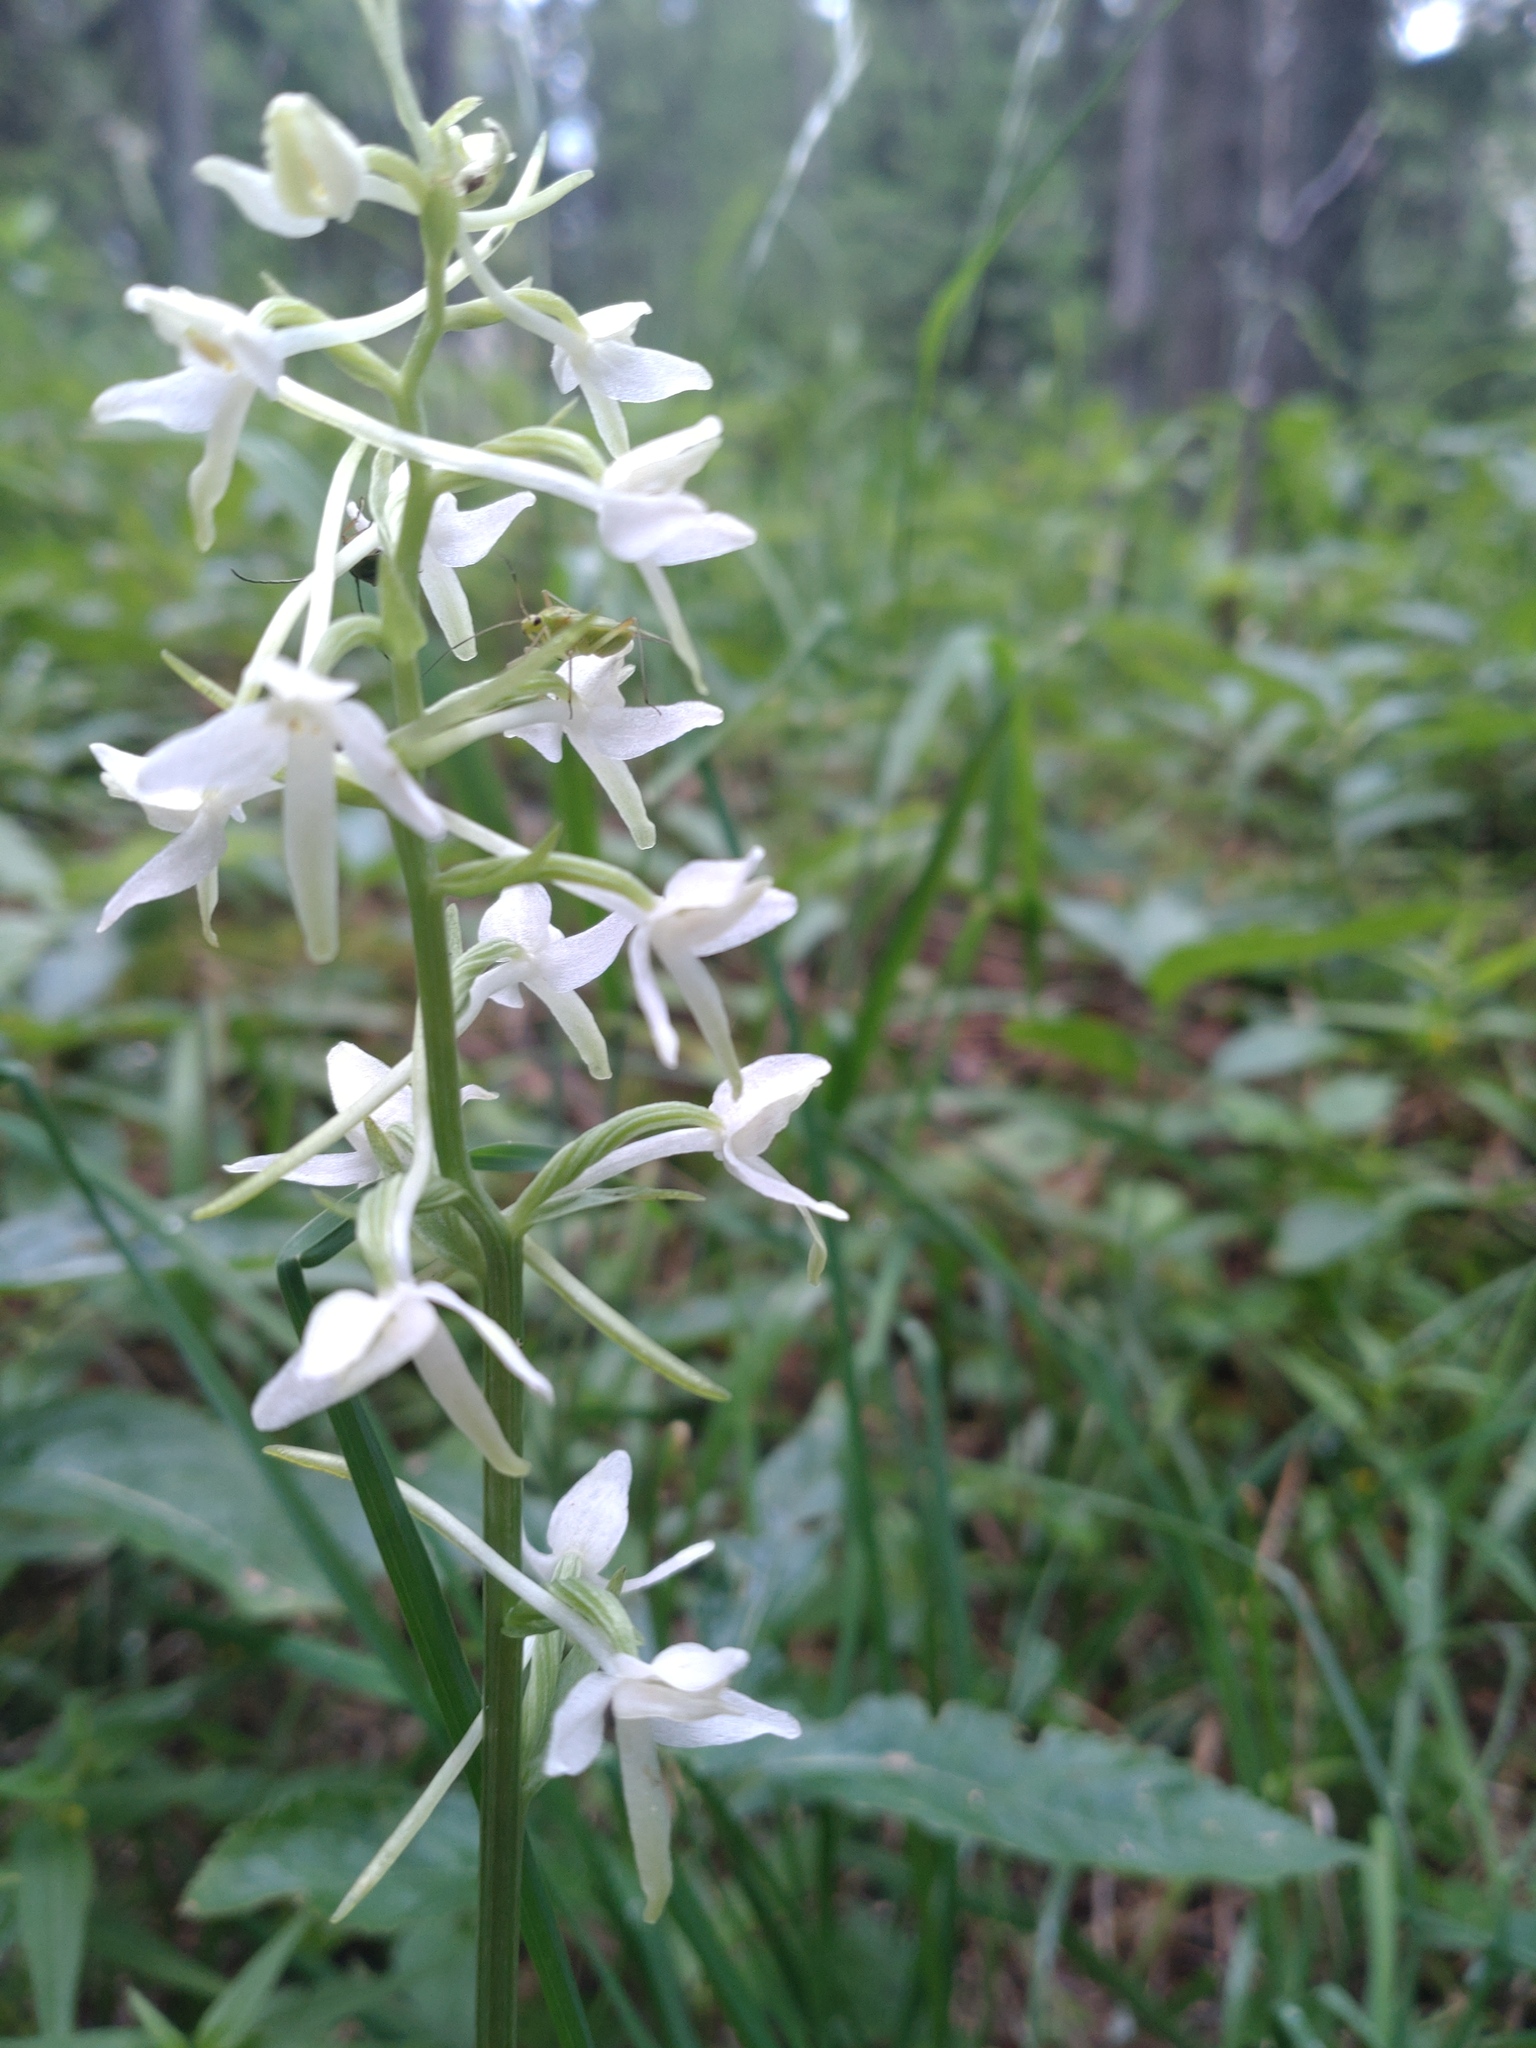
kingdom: Plantae
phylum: Tracheophyta
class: Liliopsida
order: Asparagales
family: Orchidaceae
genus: Platanthera
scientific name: Platanthera bifolia
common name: Lesser butterfly-orchid
